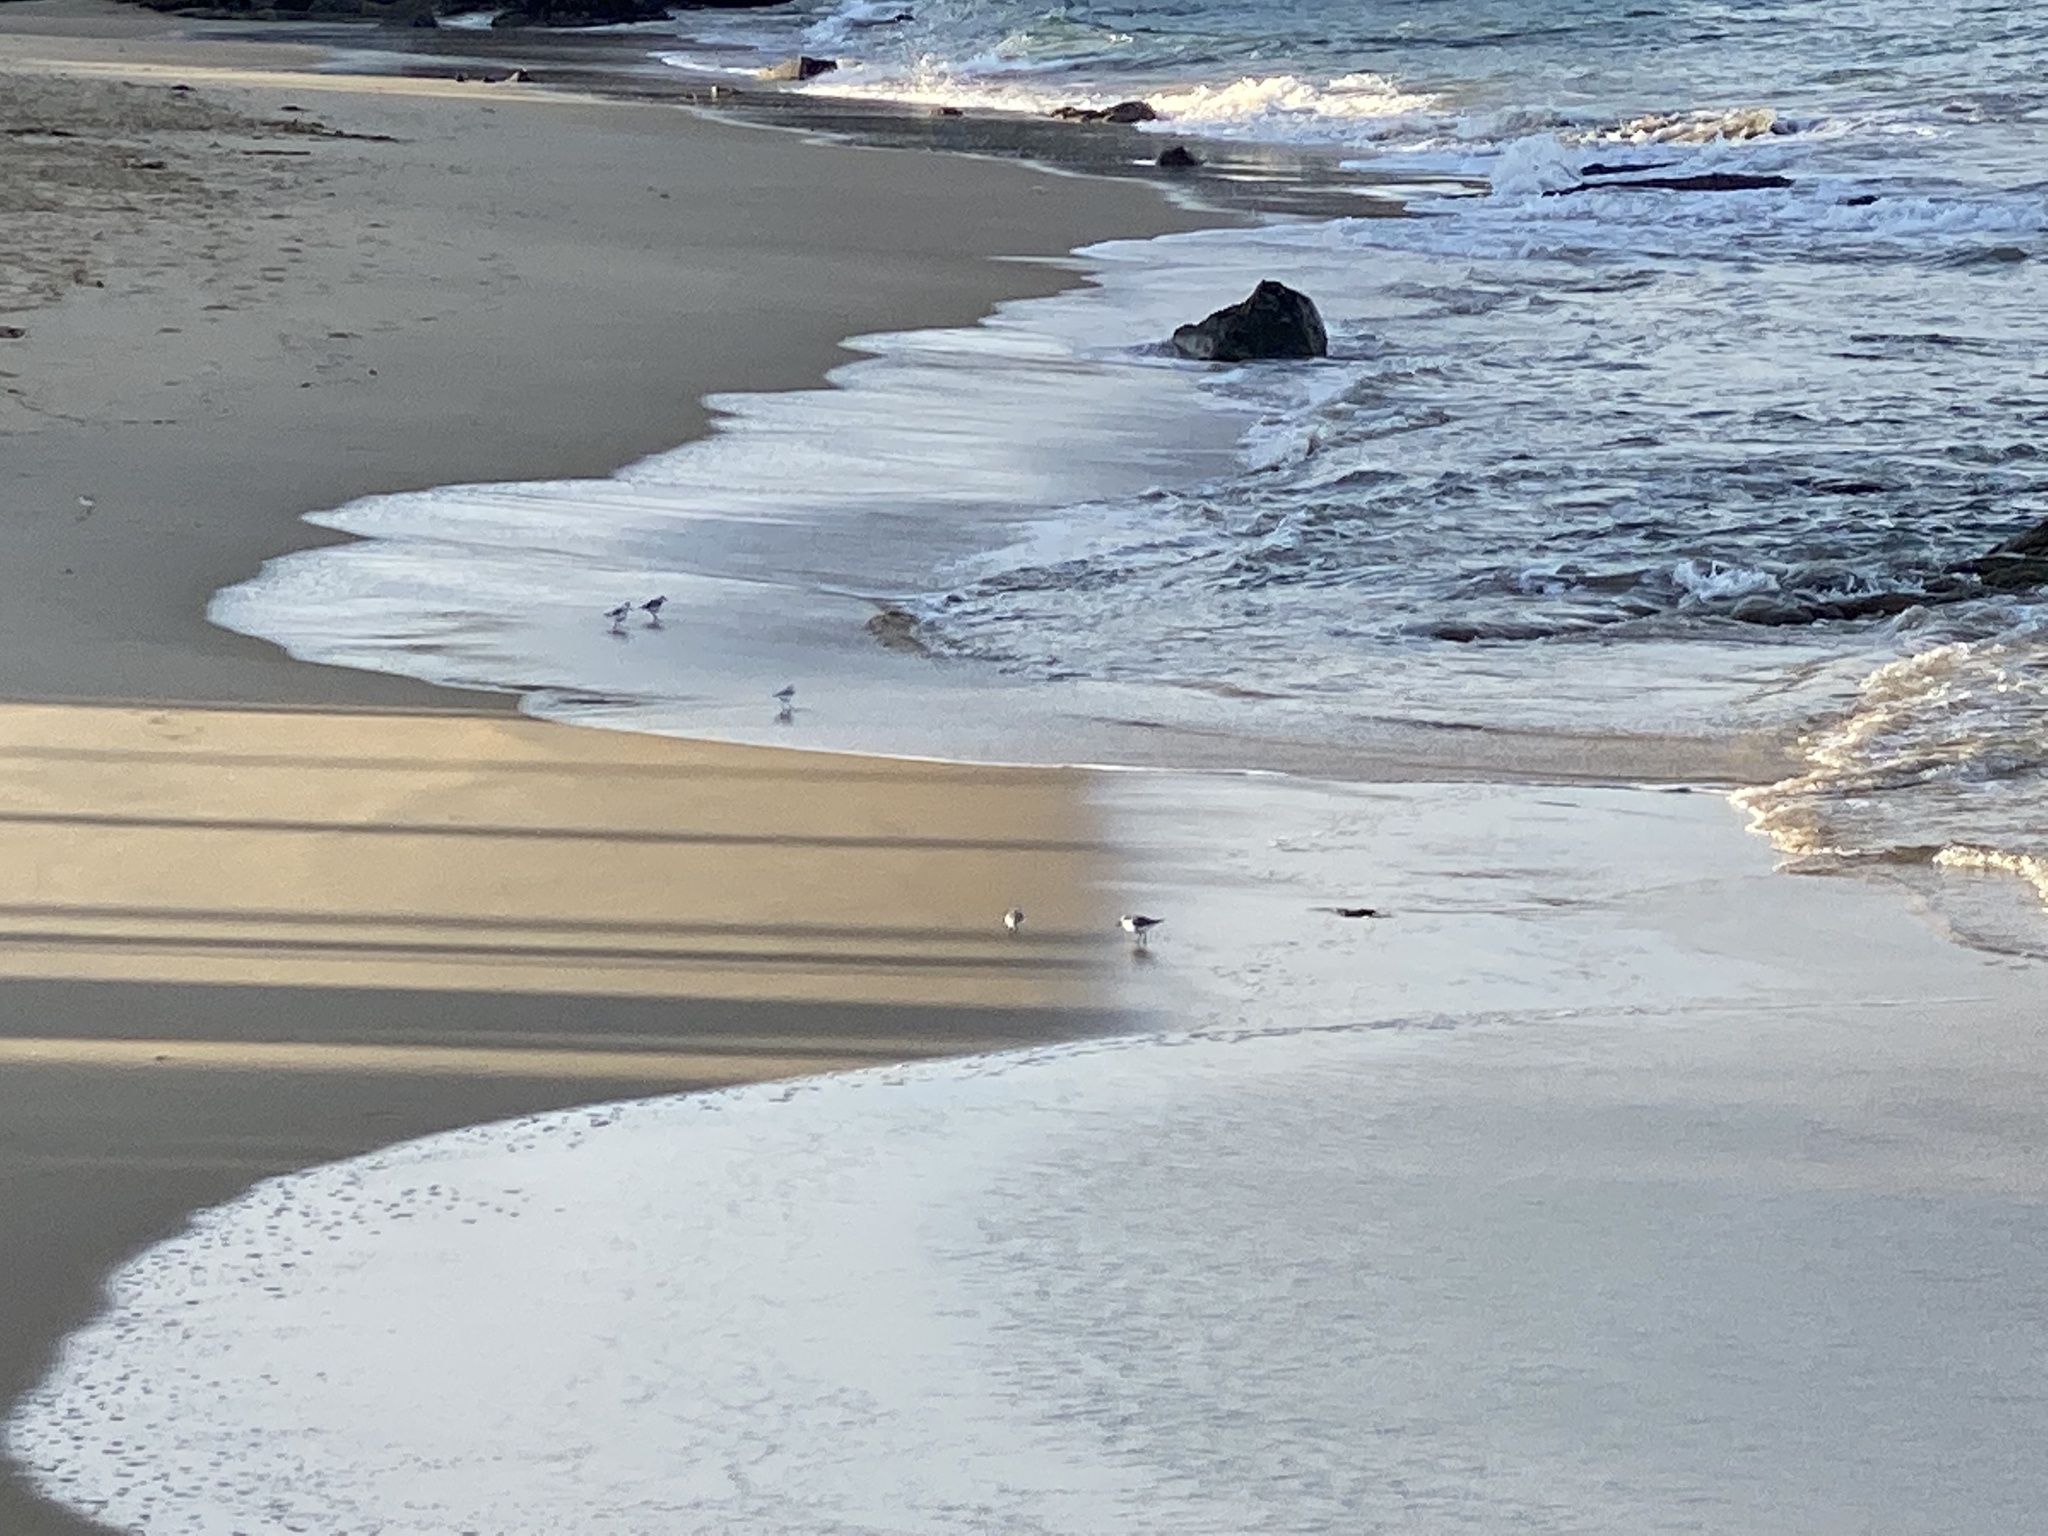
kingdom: Animalia
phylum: Chordata
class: Aves
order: Charadriiformes
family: Scolopacidae
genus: Calidris
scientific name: Calidris alba
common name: Sanderling
